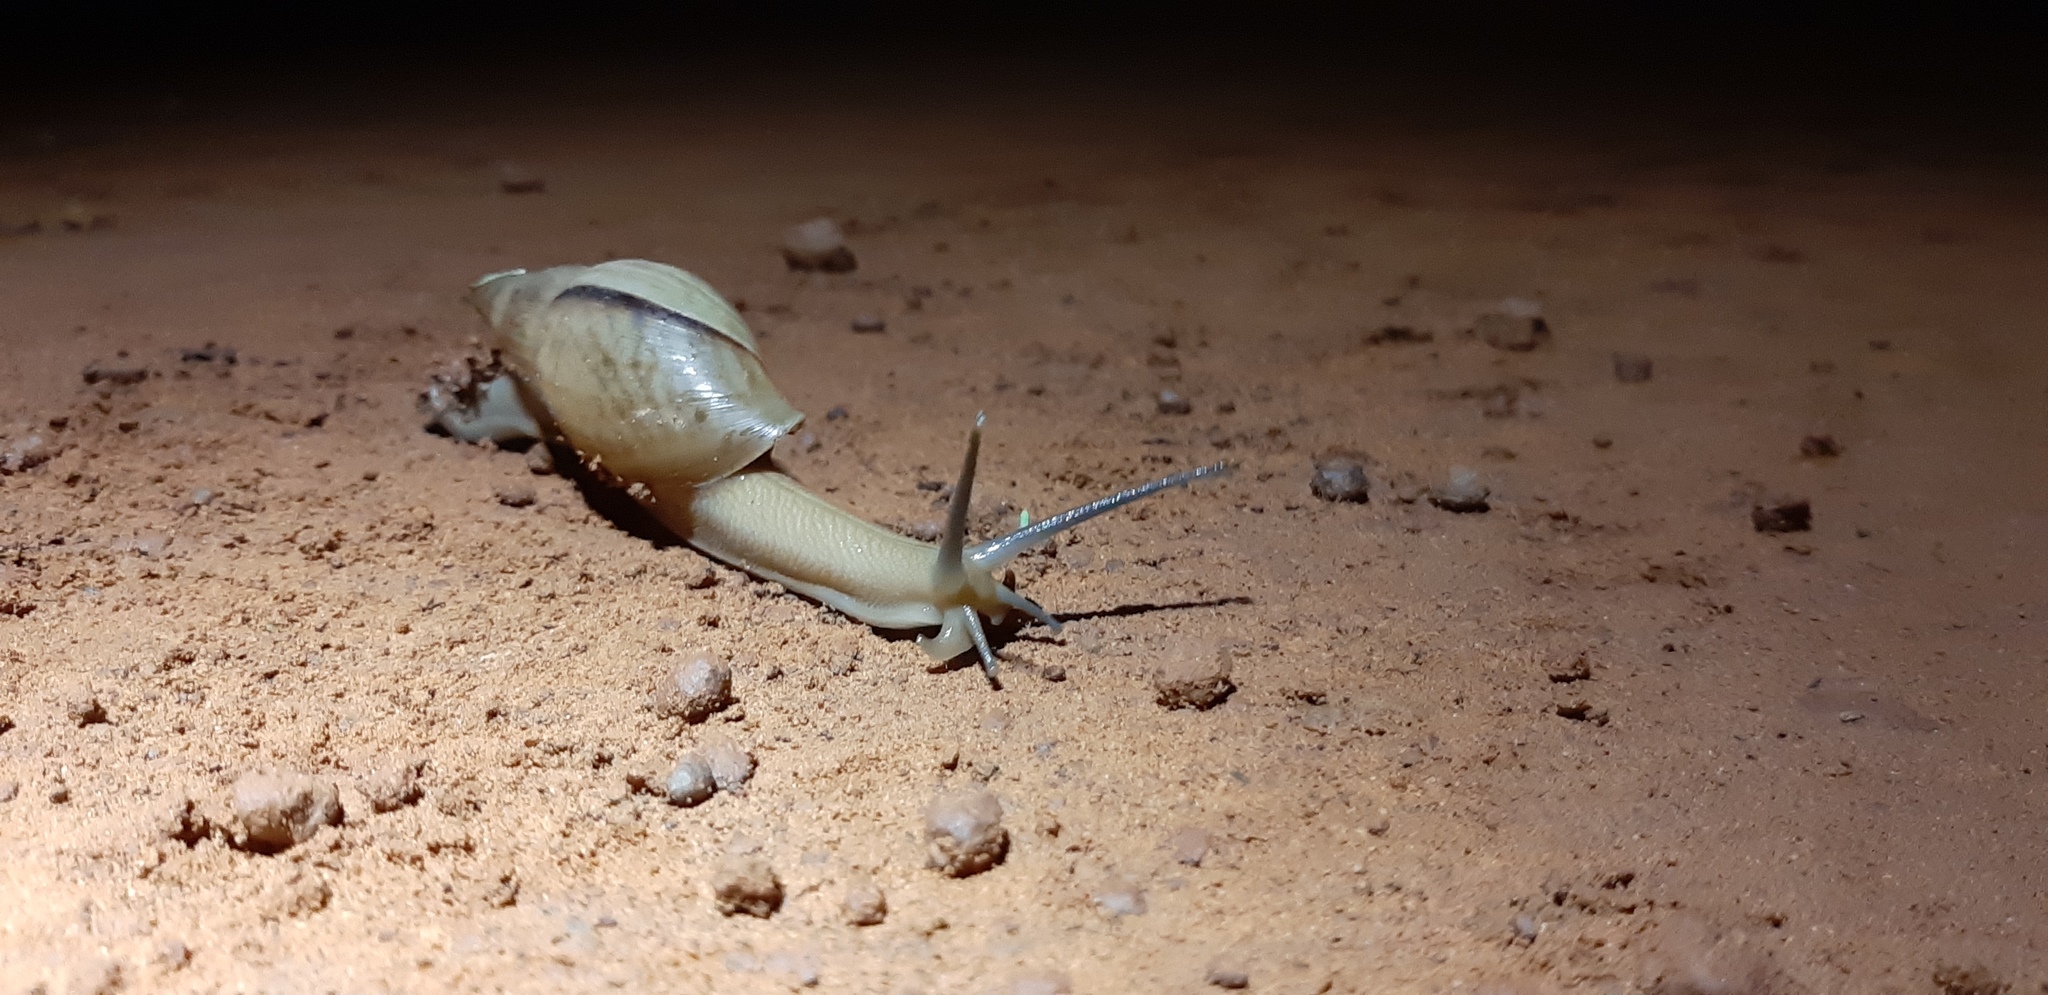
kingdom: Animalia
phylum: Mollusca
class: Gastropoda
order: Stylommatophora
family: Spiraxidae
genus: Euglandina
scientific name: Euglandina striata
